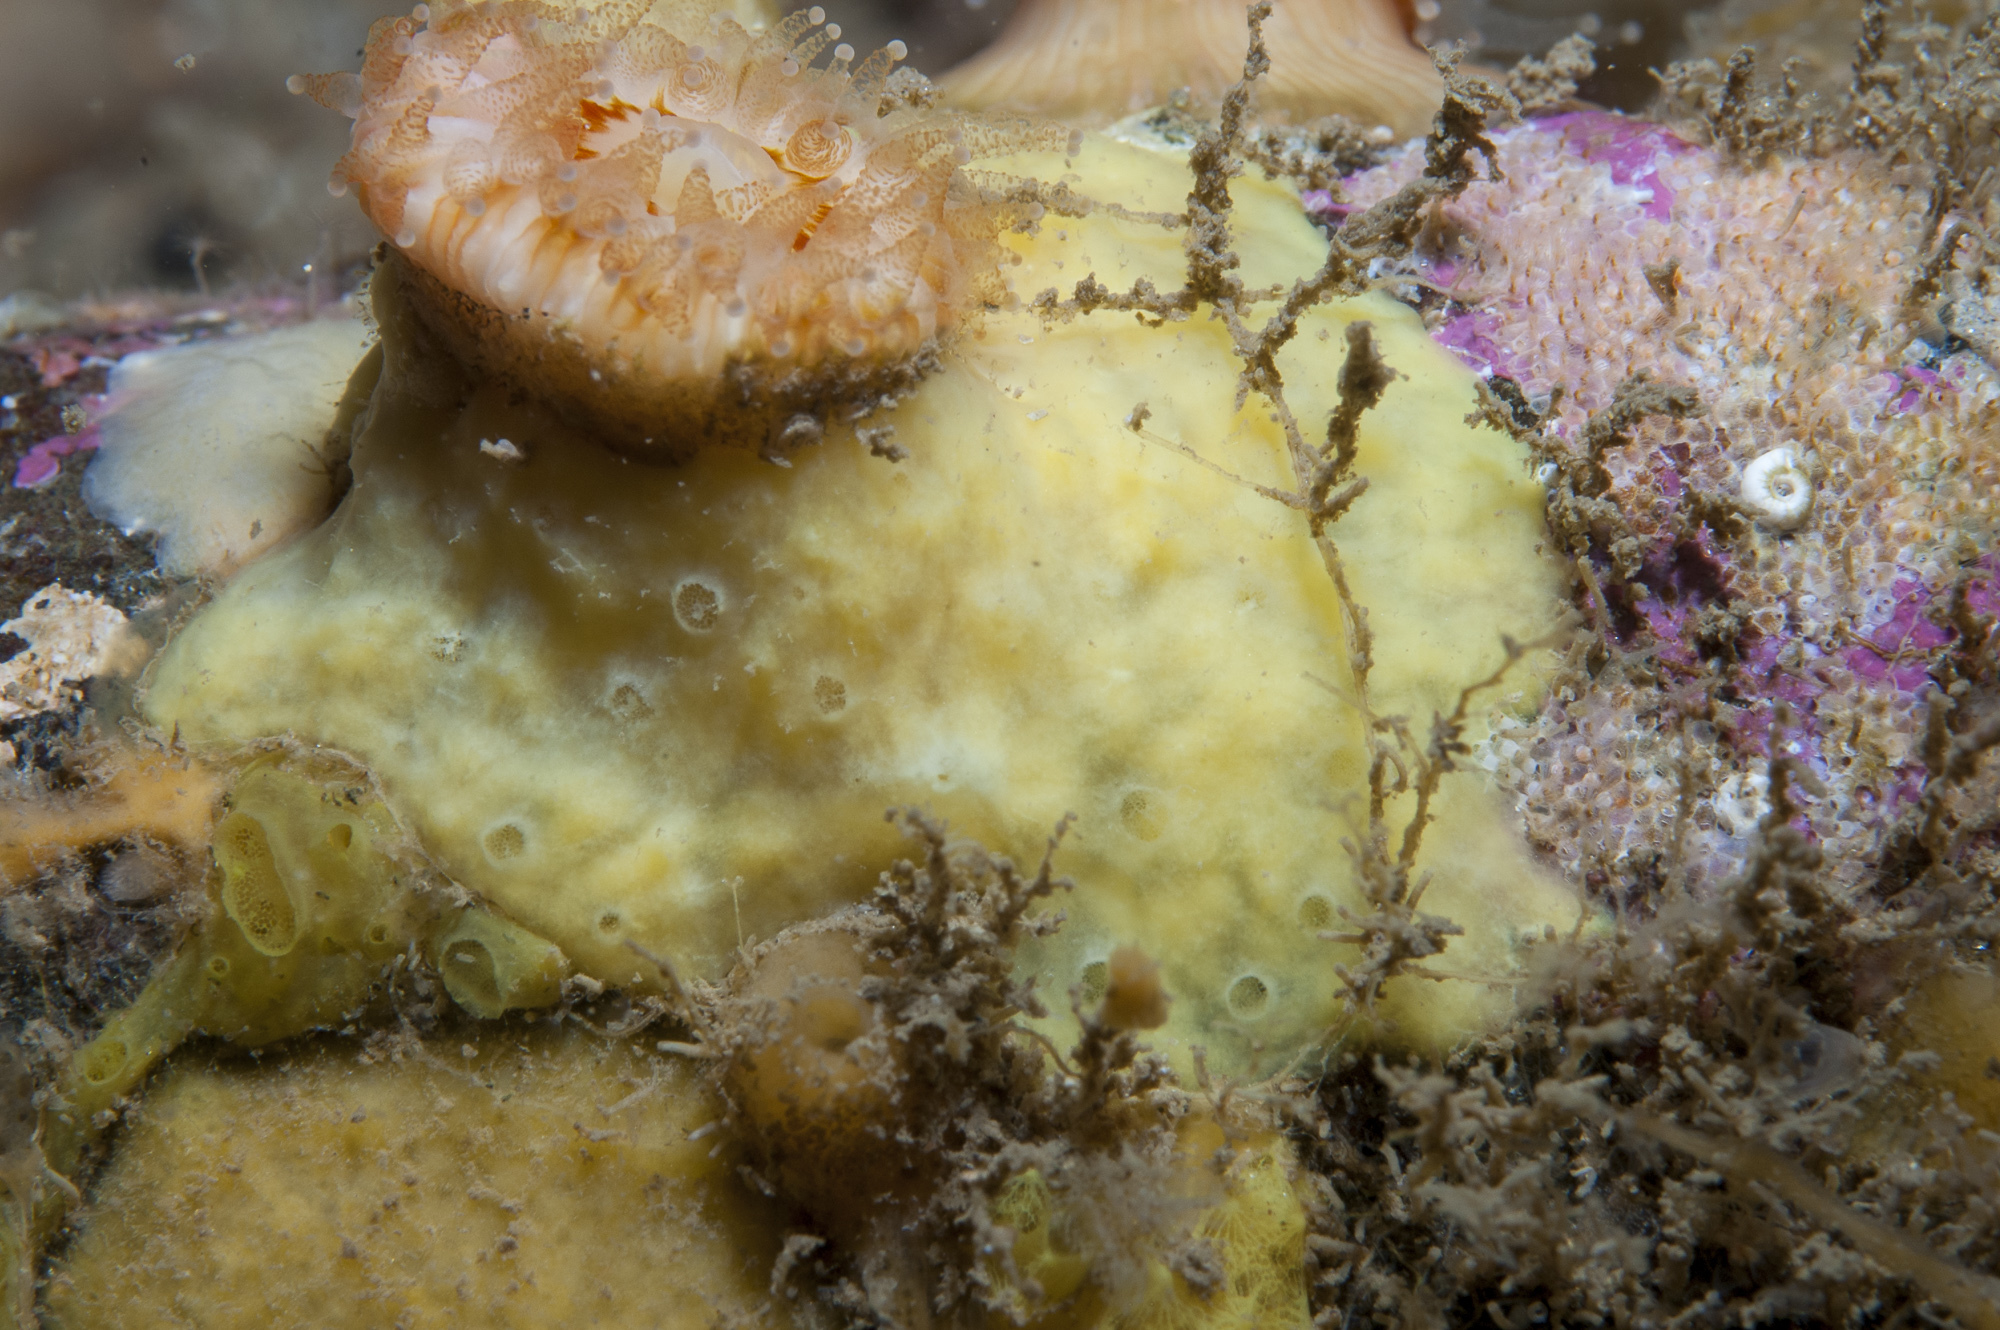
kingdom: Animalia
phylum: Porifera
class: Demospongiae
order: Poecilosclerida
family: Coelosphaeridae
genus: Lissodendoryx
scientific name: Lissodendoryx jenjonesae
